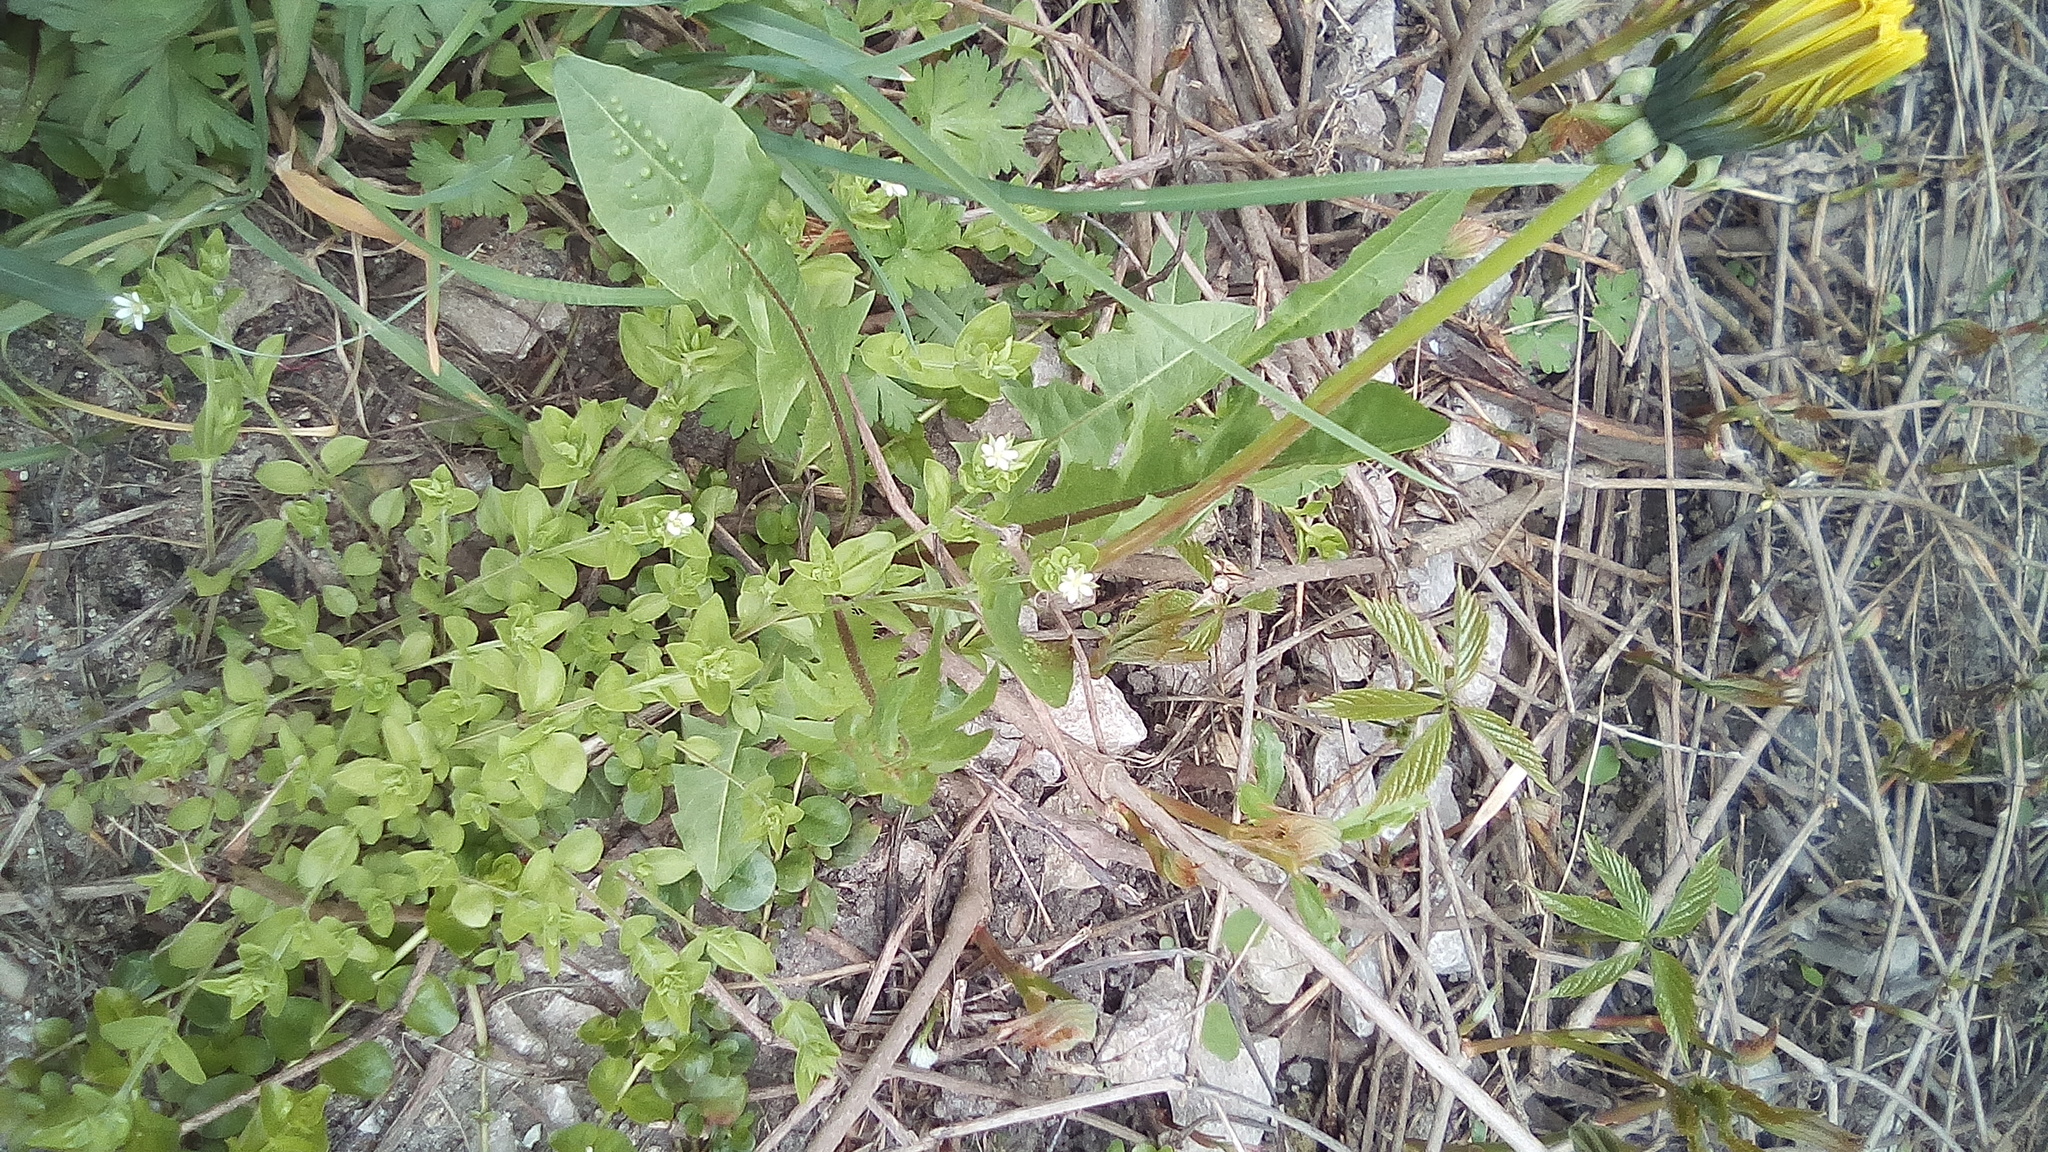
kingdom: Plantae
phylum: Tracheophyta
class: Magnoliopsida
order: Caryophyllales
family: Caryophyllaceae
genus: Moehringia
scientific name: Moehringia trinervia
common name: Three-nerved sandwort
